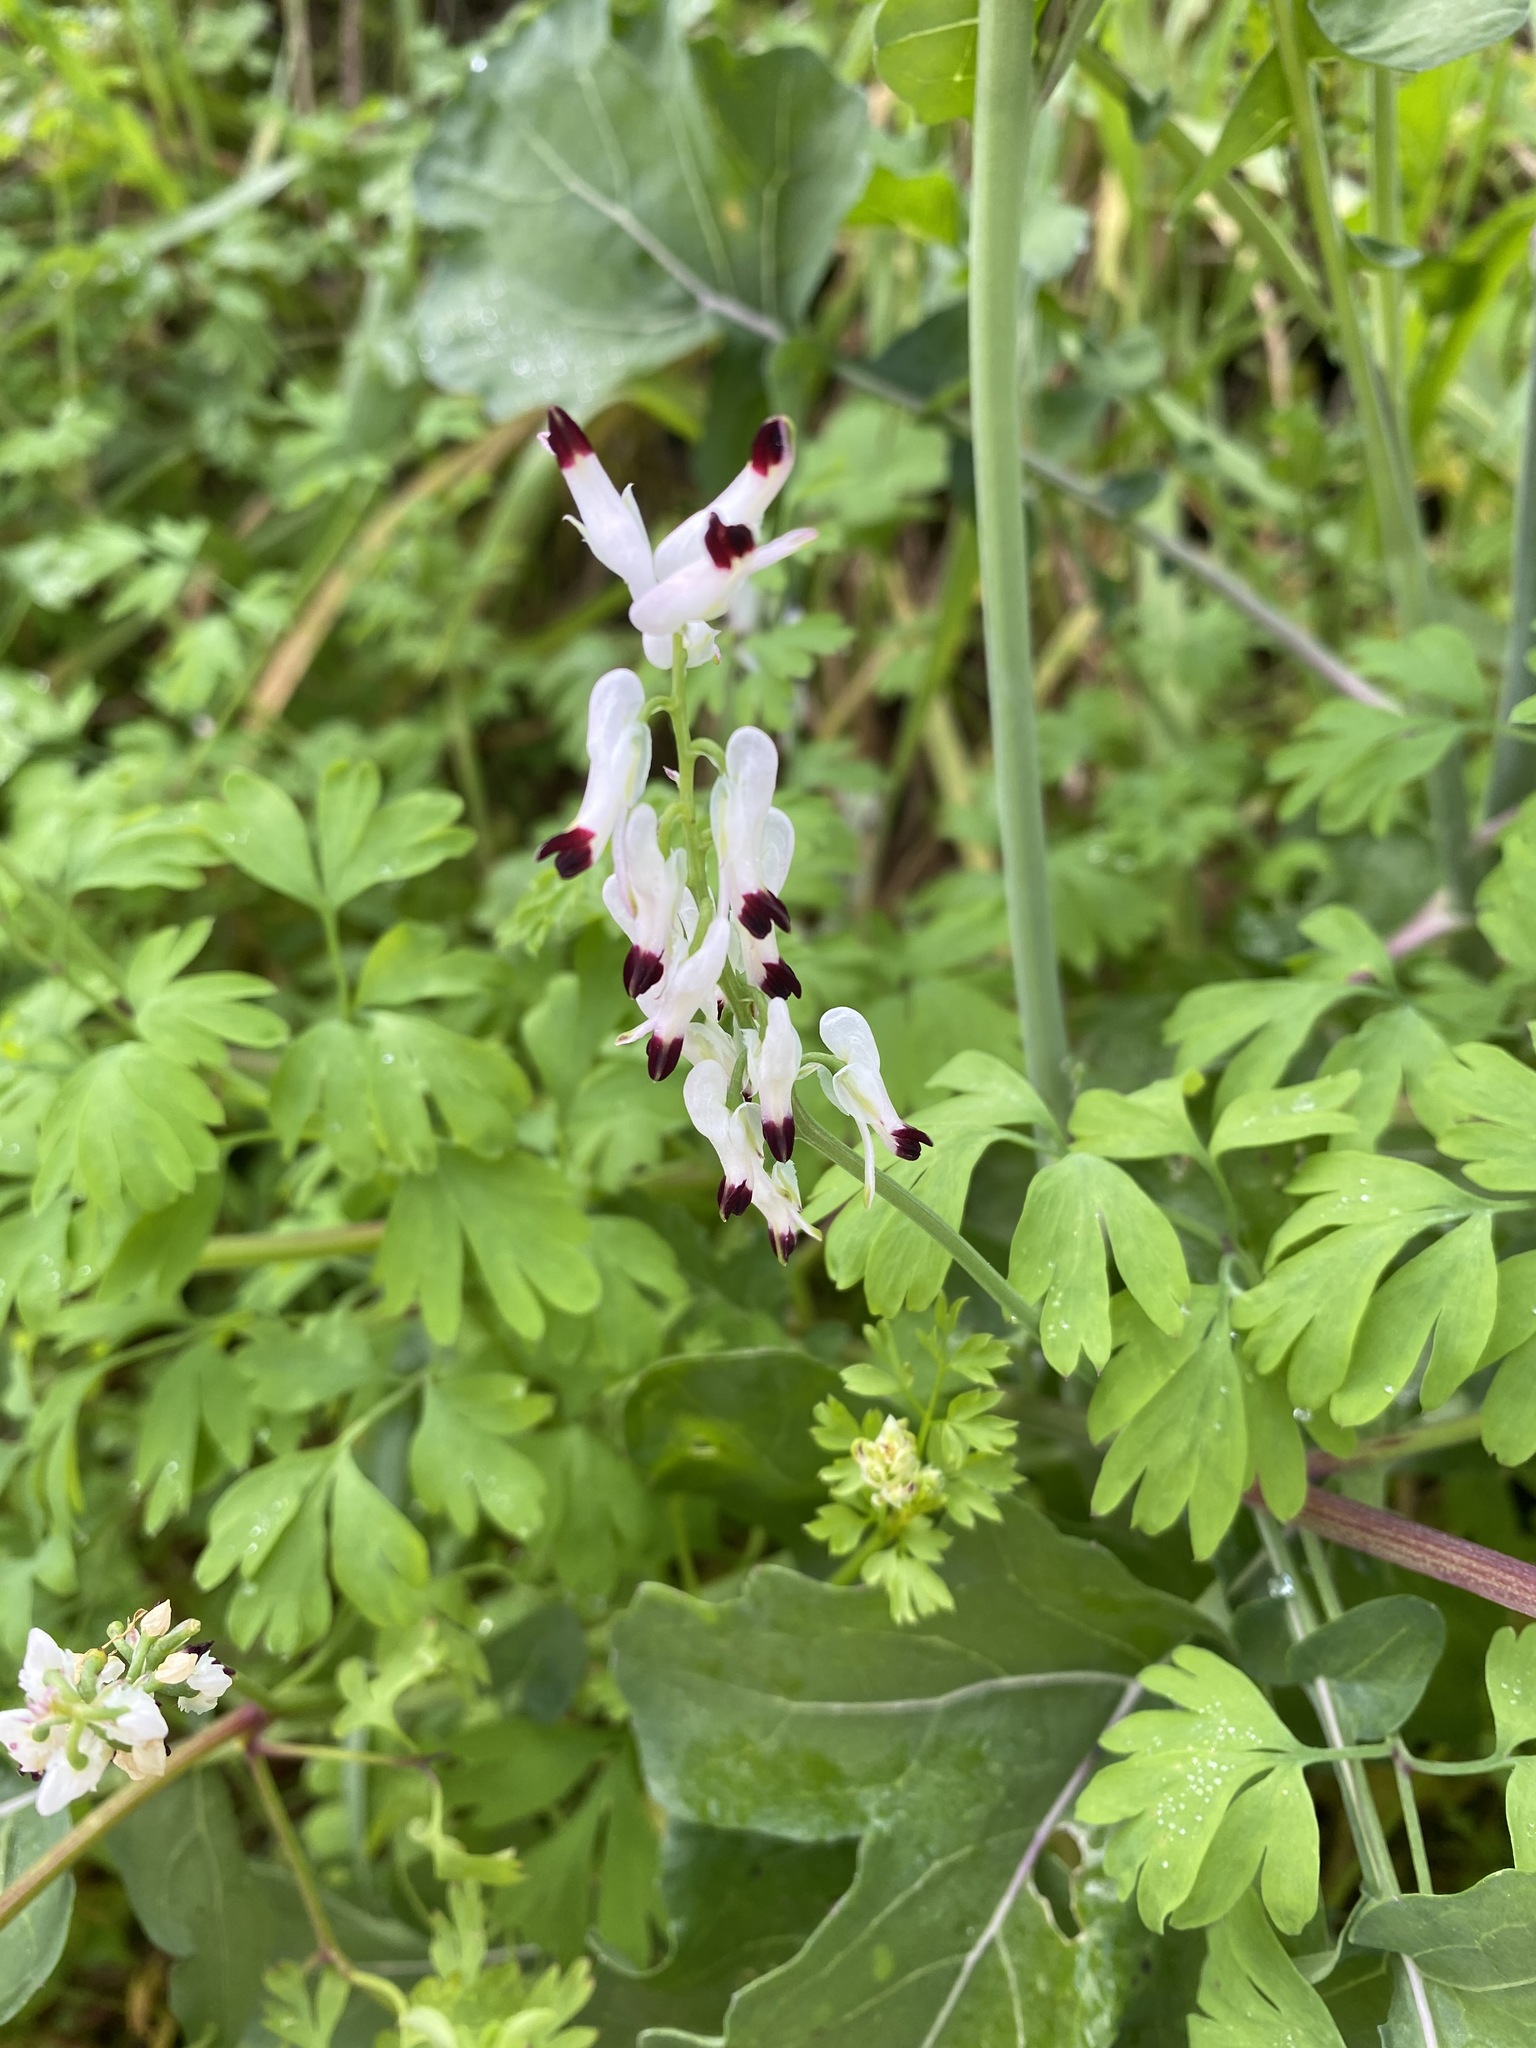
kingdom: Plantae
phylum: Tracheophyta
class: Magnoliopsida
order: Ranunculales
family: Papaveraceae
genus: Fumaria
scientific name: Fumaria capreolata
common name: White ramping-fumitory
